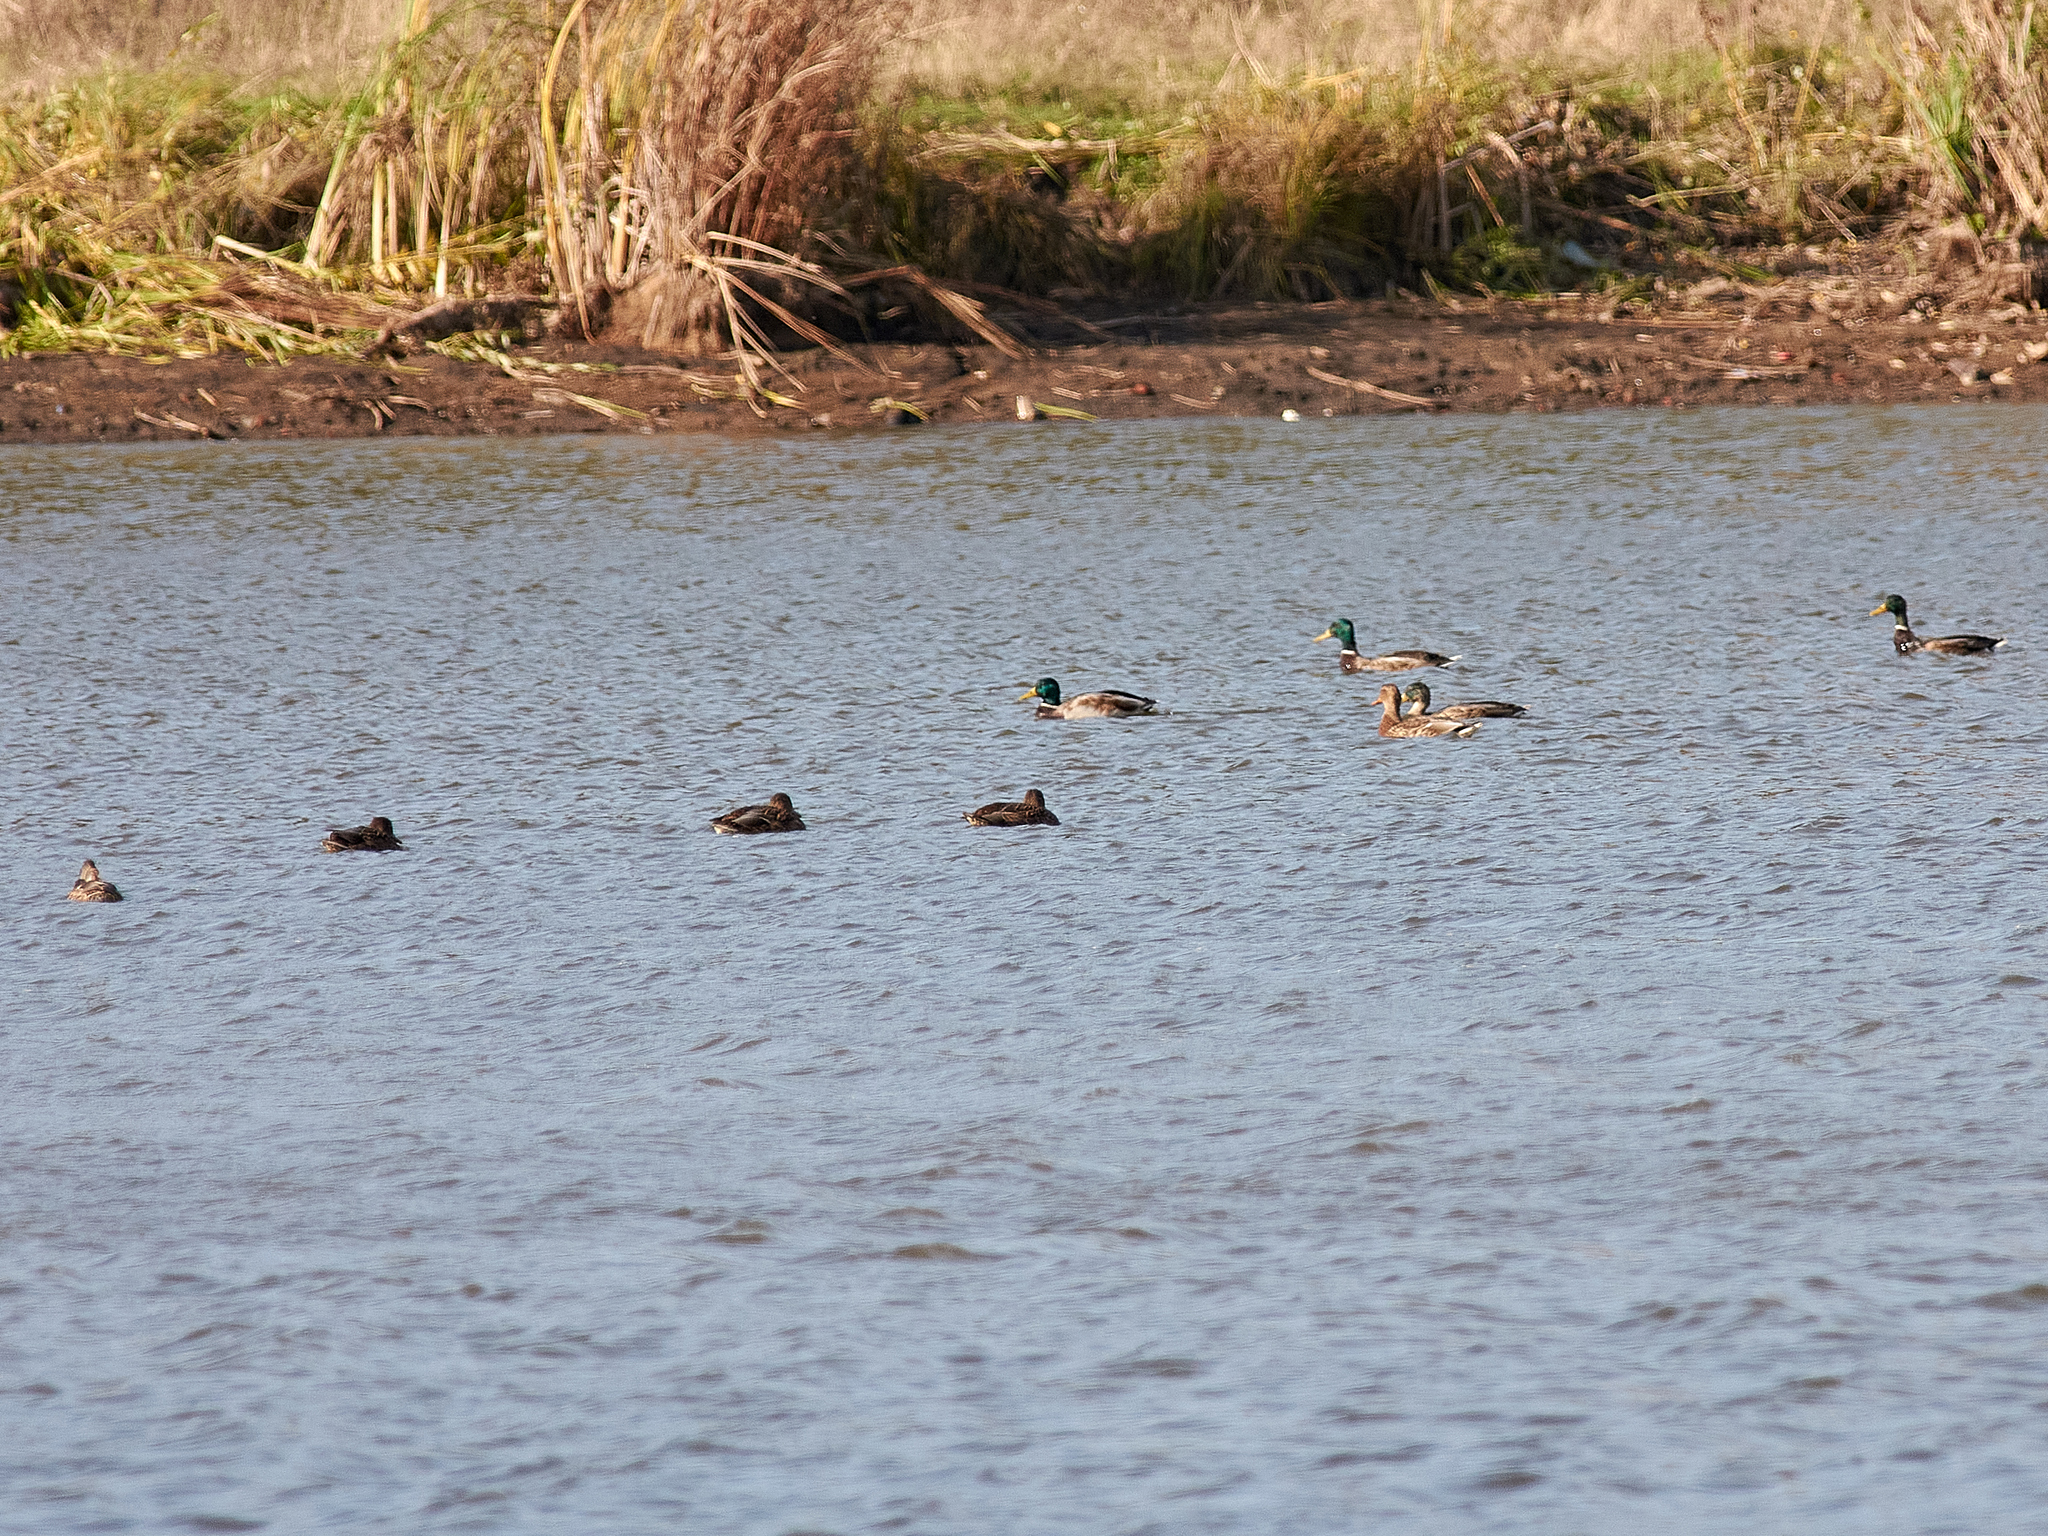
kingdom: Animalia
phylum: Chordata
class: Aves
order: Anseriformes
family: Anatidae
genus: Anas
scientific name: Anas platyrhynchos
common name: Mallard
